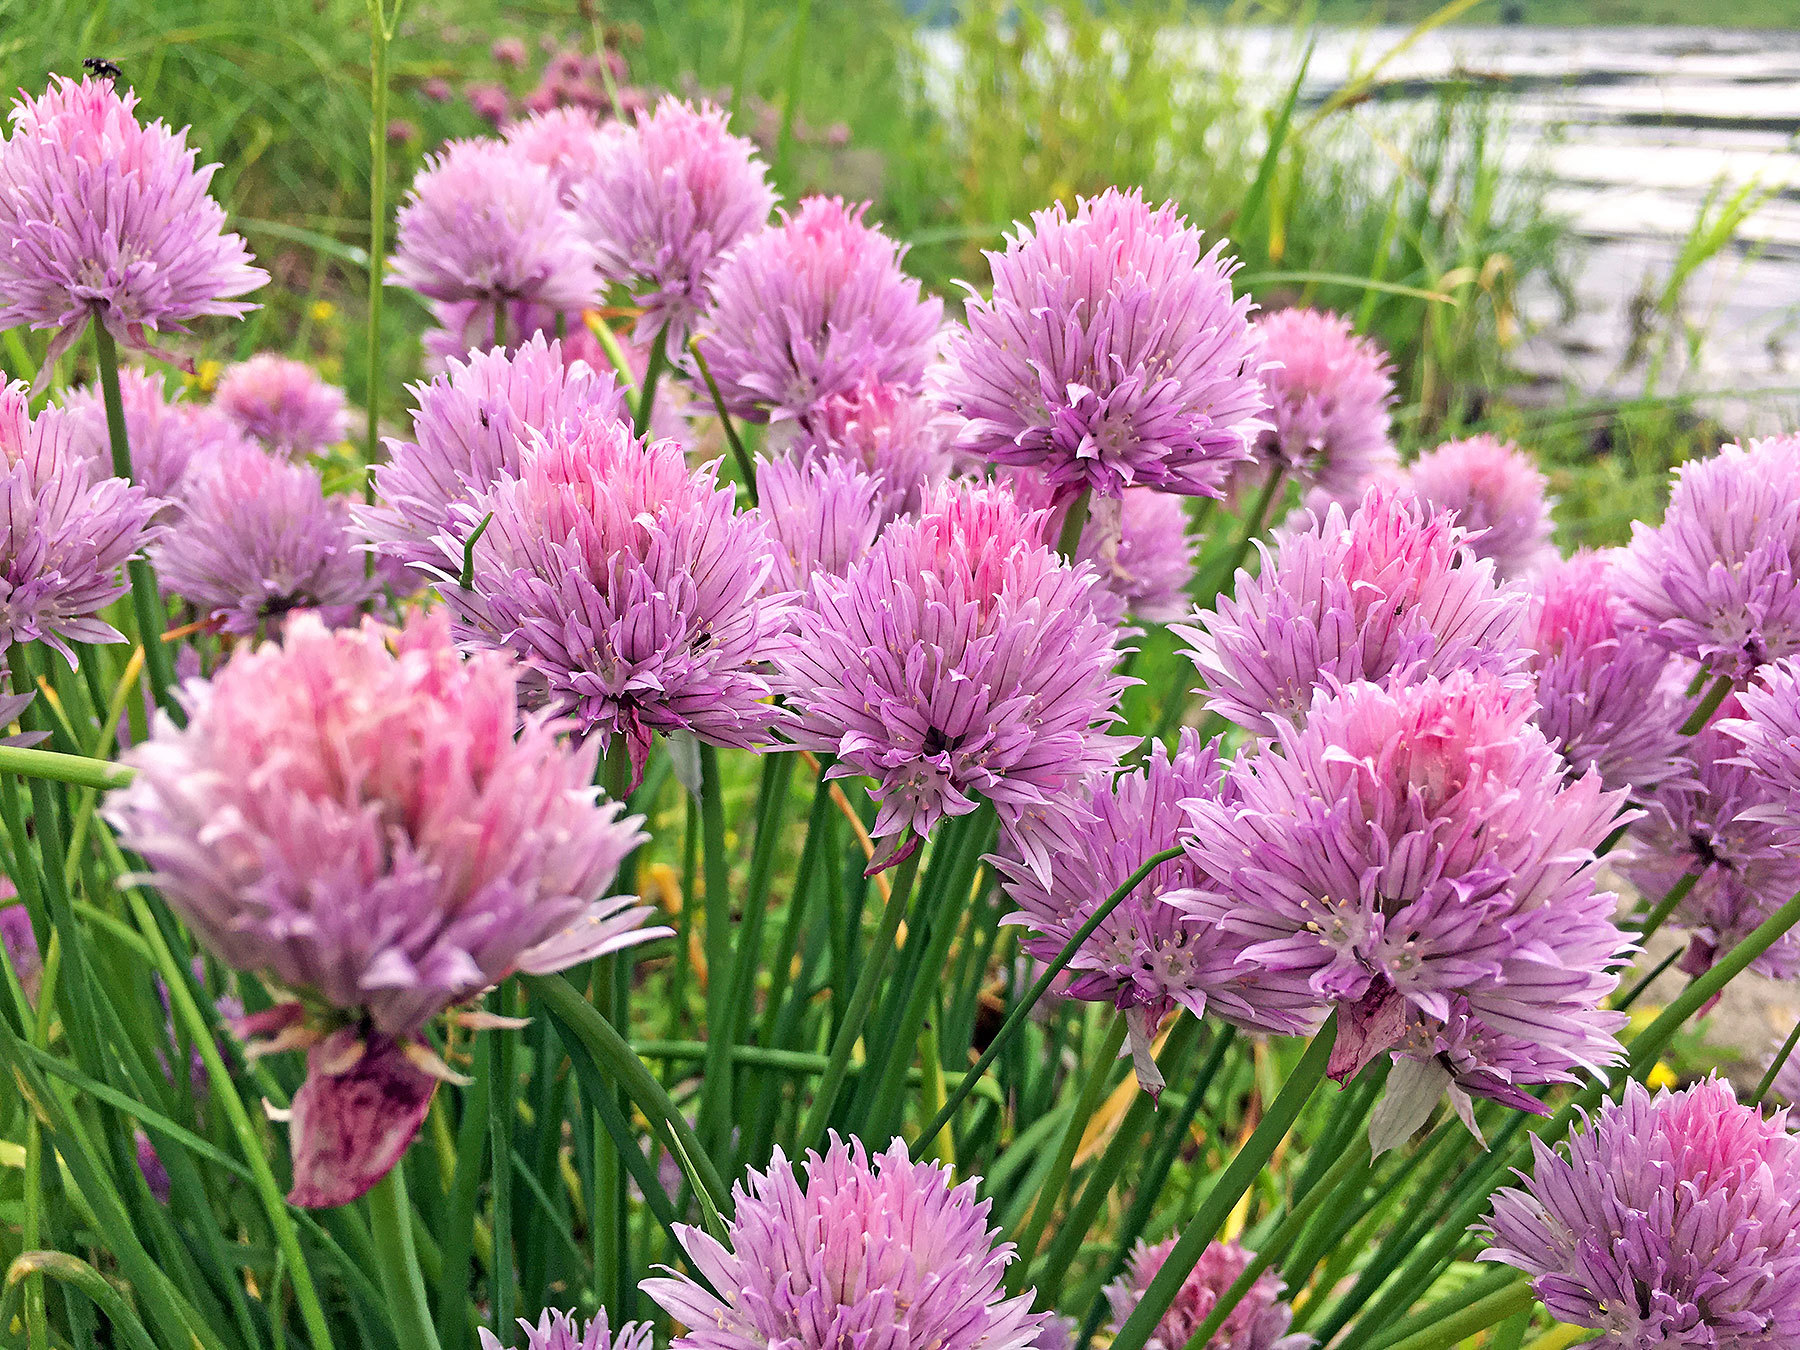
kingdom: Plantae
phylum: Tracheophyta
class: Liliopsida
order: Asparagales
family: Amaryllidaceae
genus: Allium
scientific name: Allium schoenoprasum
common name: Chives
